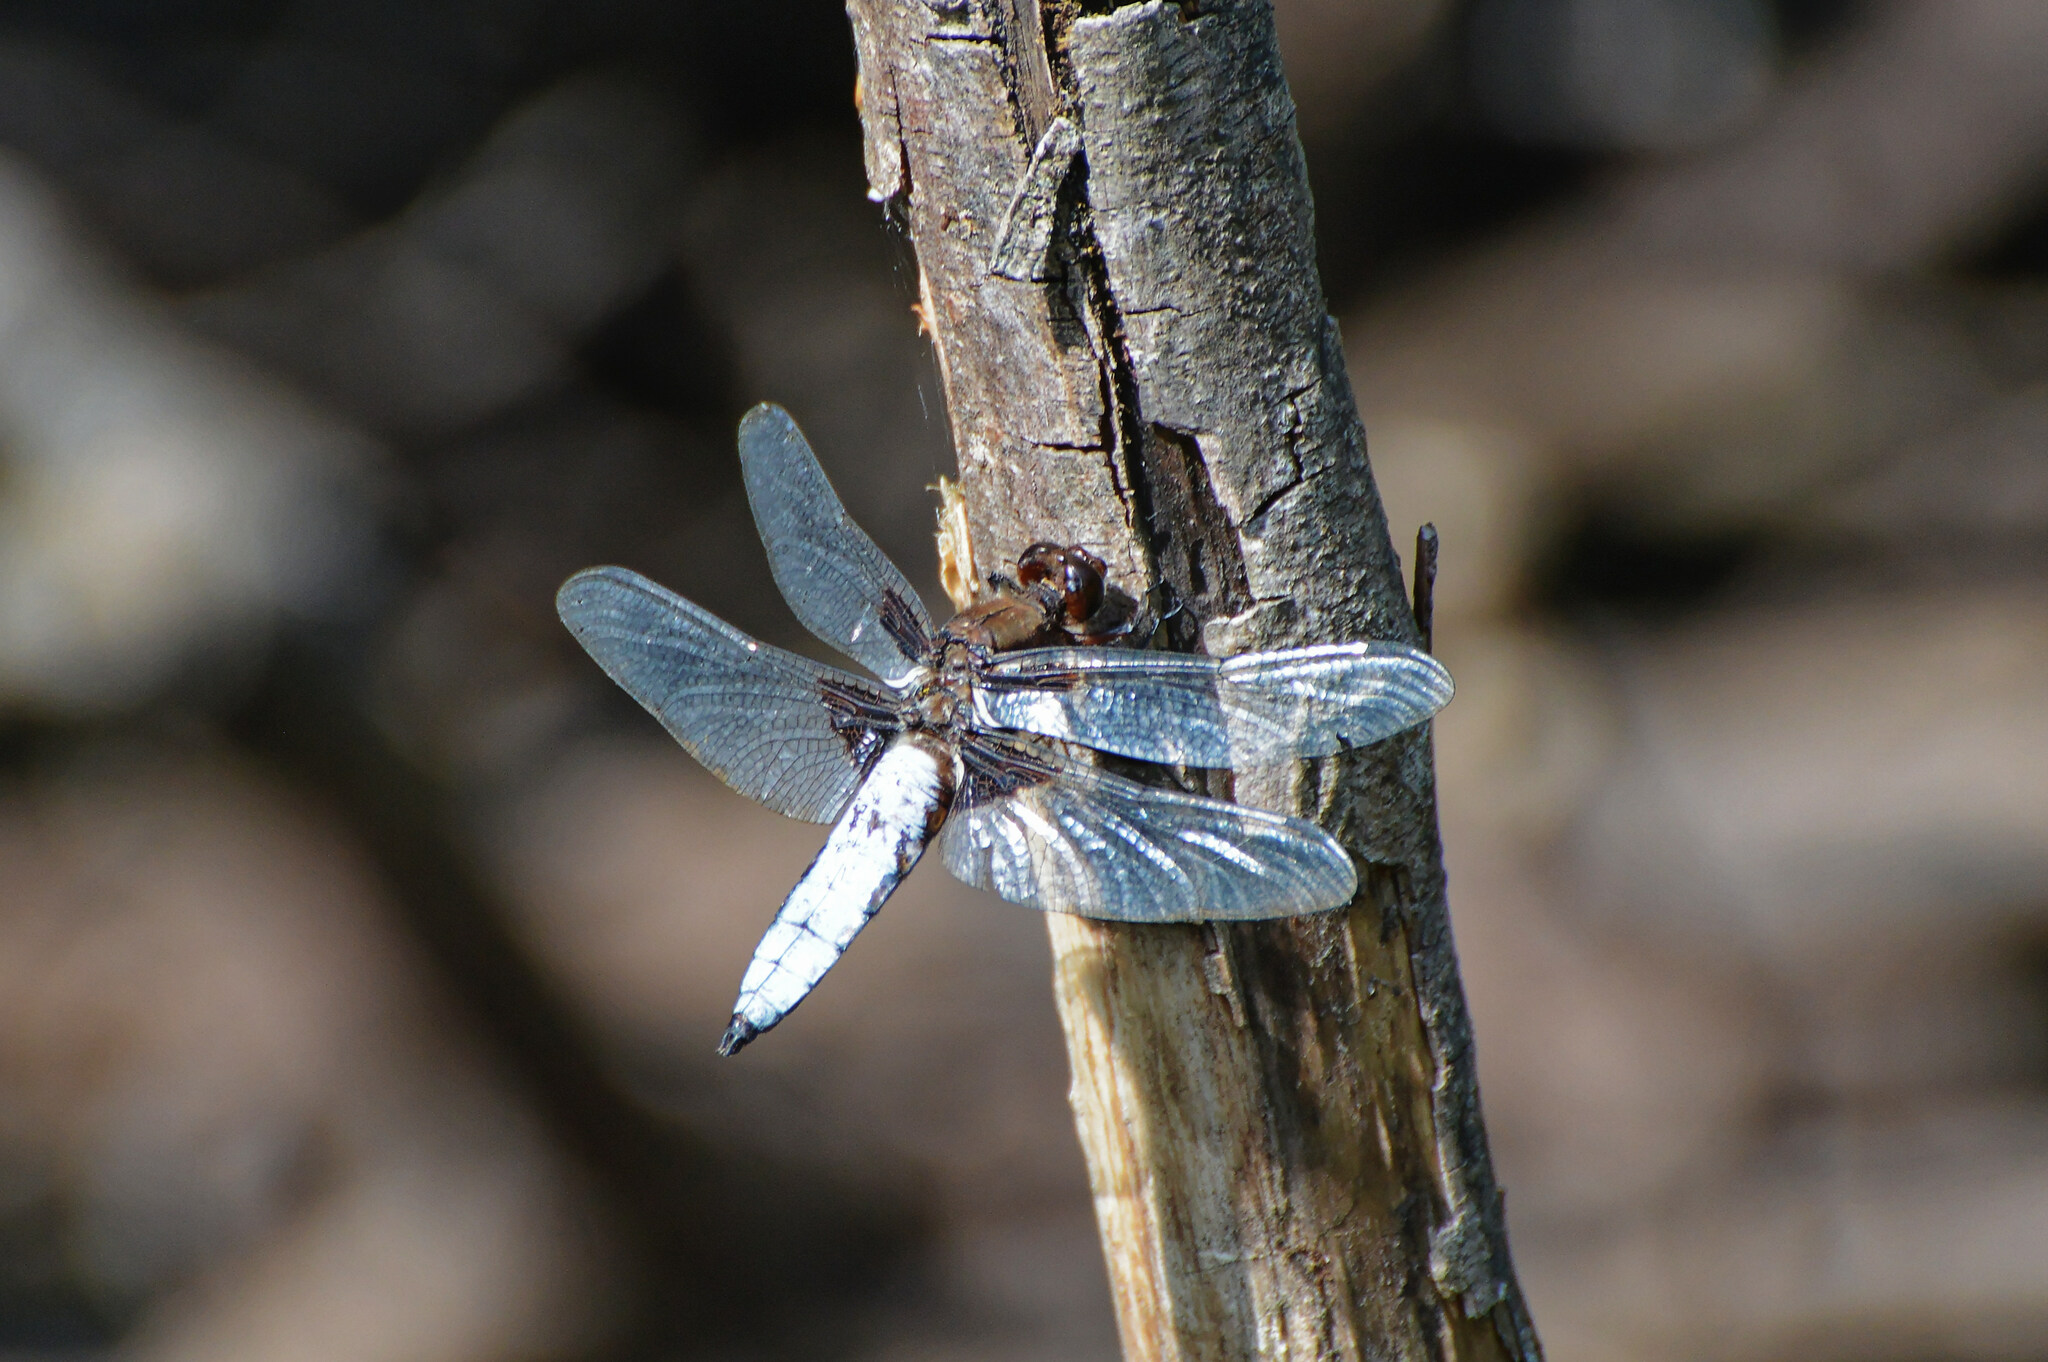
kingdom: Animalia
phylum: Arthropoda
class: Insecta
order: Odonata
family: Libellulidae
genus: Libellula
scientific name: Libellula depressa
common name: Broad-bodied chaser
